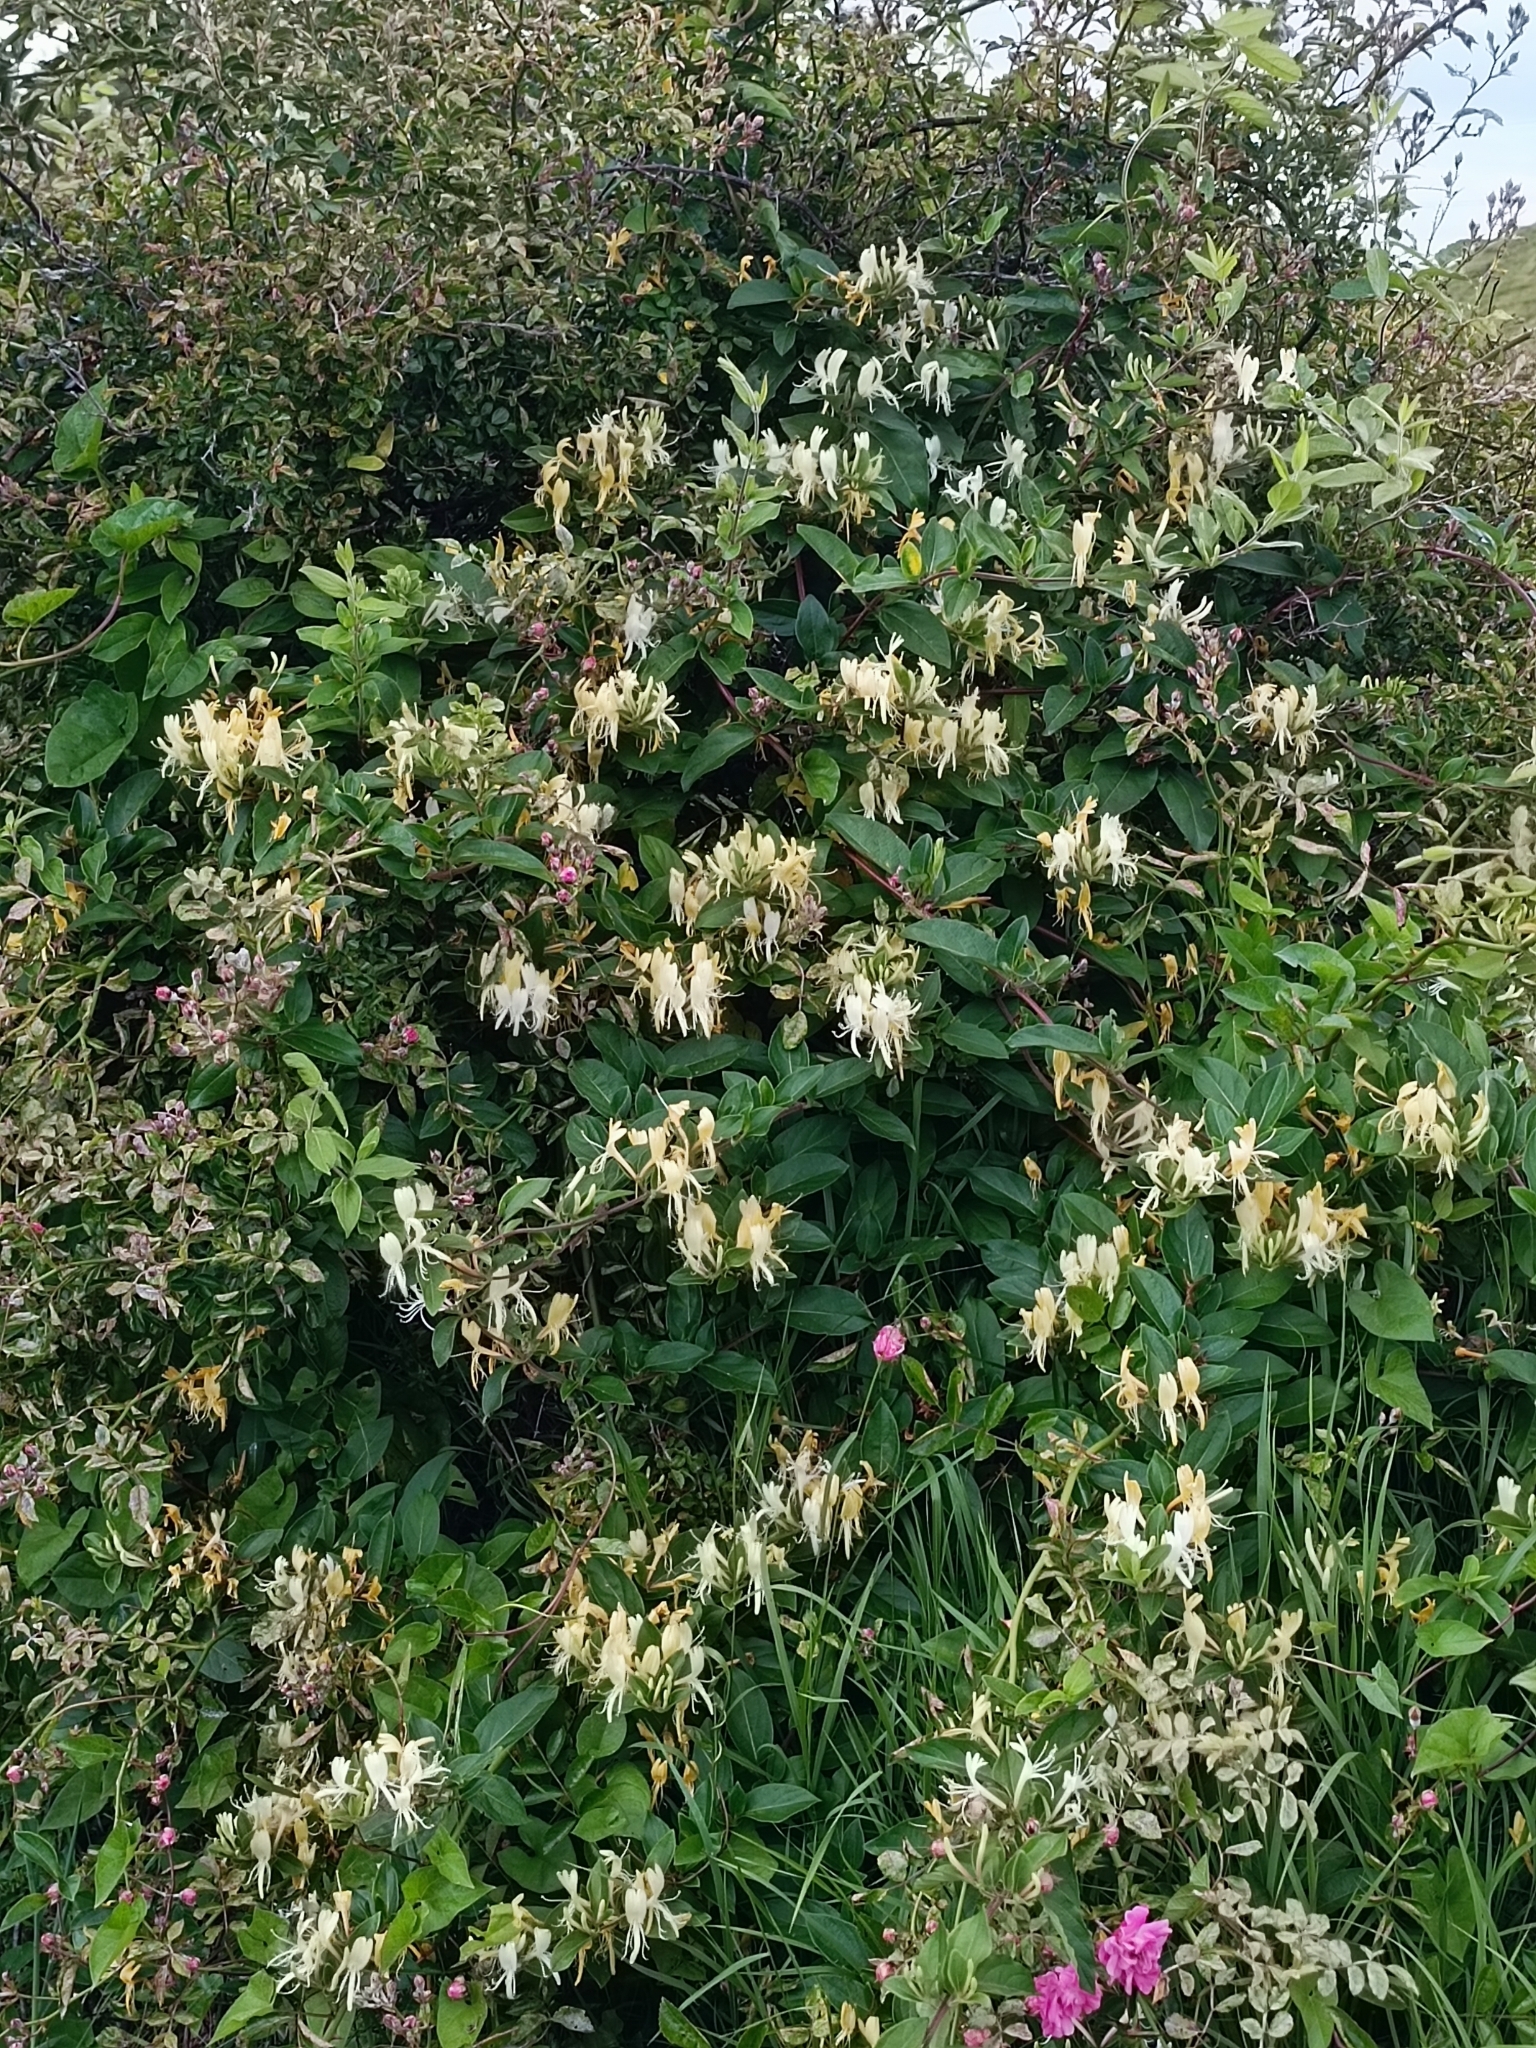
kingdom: Plantae
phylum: Tracheophyta
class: Magnoliopsida
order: Dipsacales
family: Caprifoliaceae
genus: Lonicera
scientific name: Lonicera japonica
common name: Japanese honeysuckle
